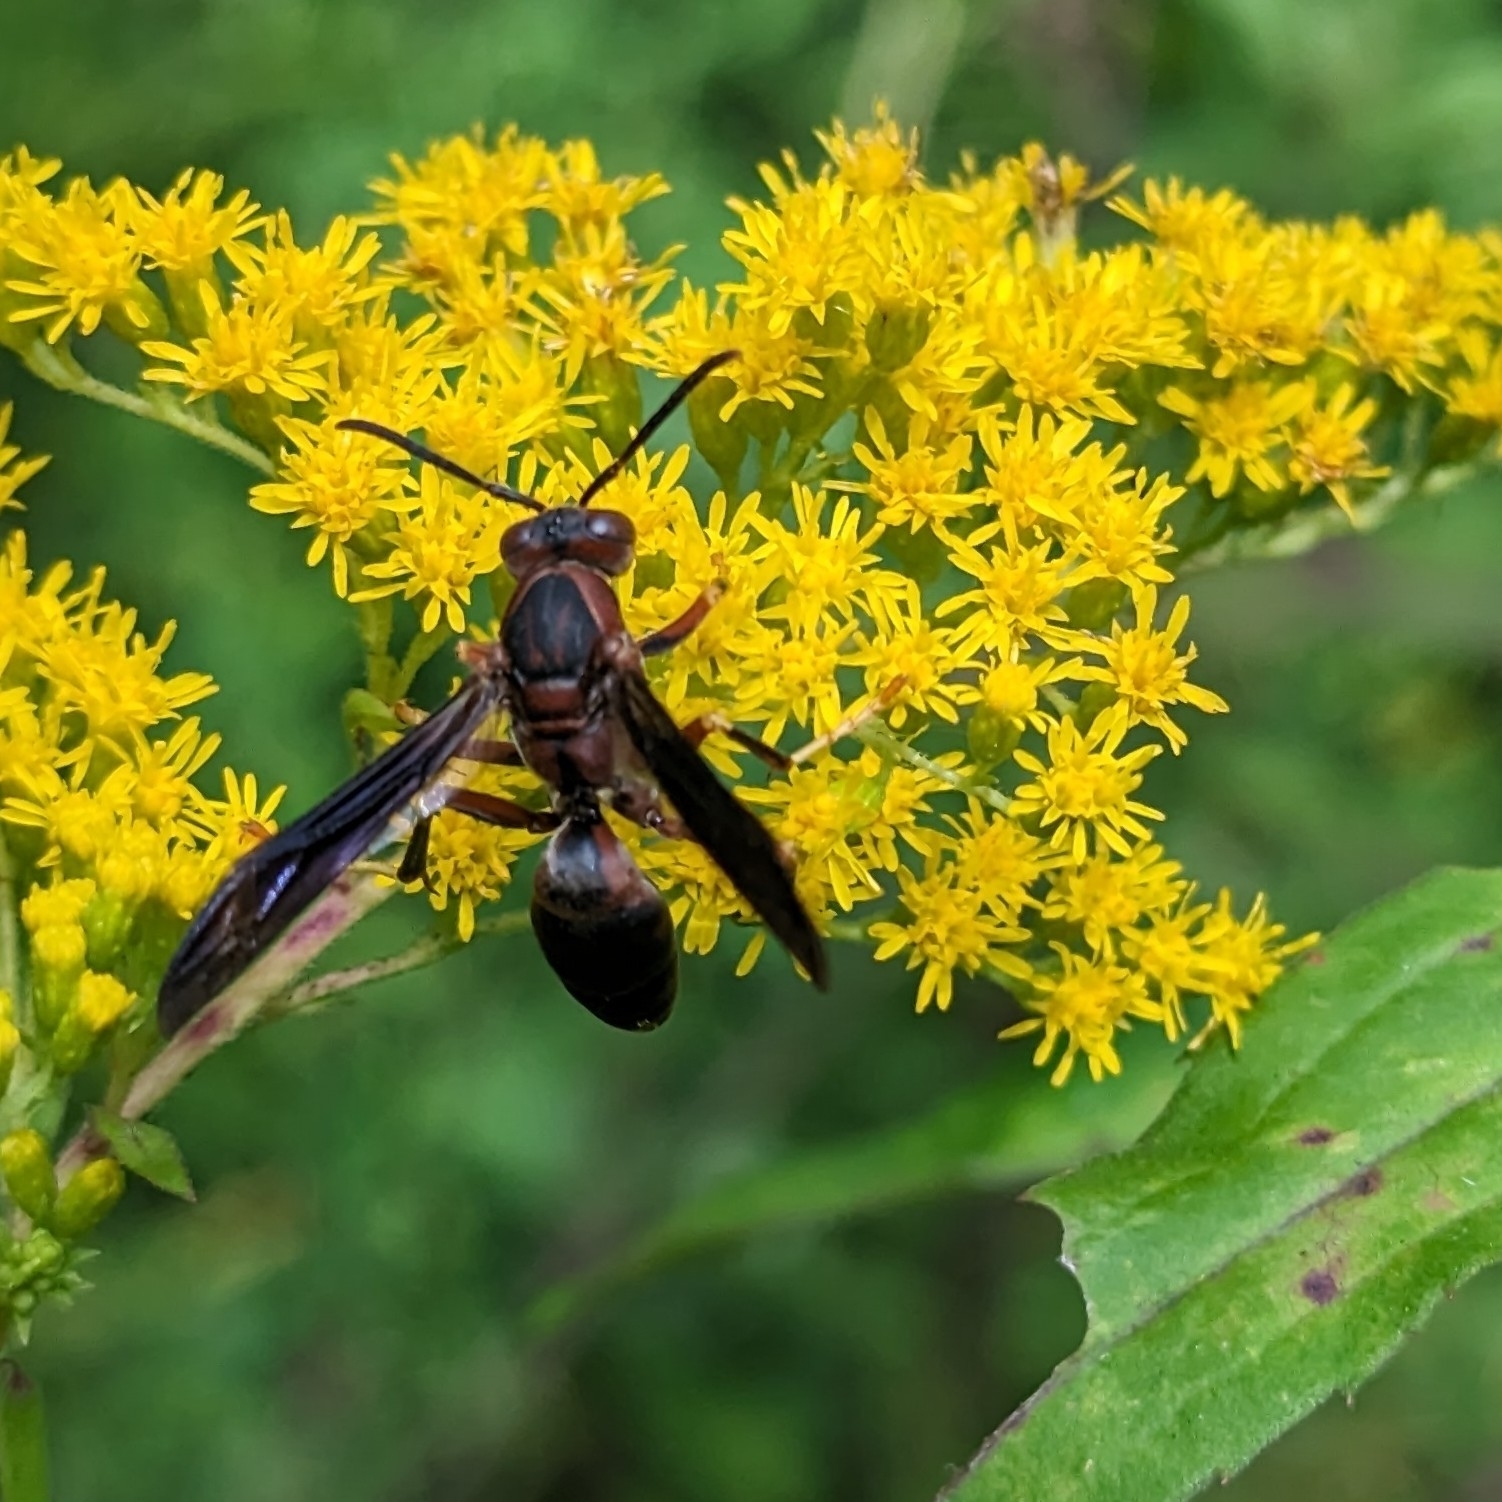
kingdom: Animalia
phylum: Arthropoda
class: Insecta
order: Hymenoptera
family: Eumenidae
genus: Polistes
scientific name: Polistes metricus
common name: Metric paper wasp
